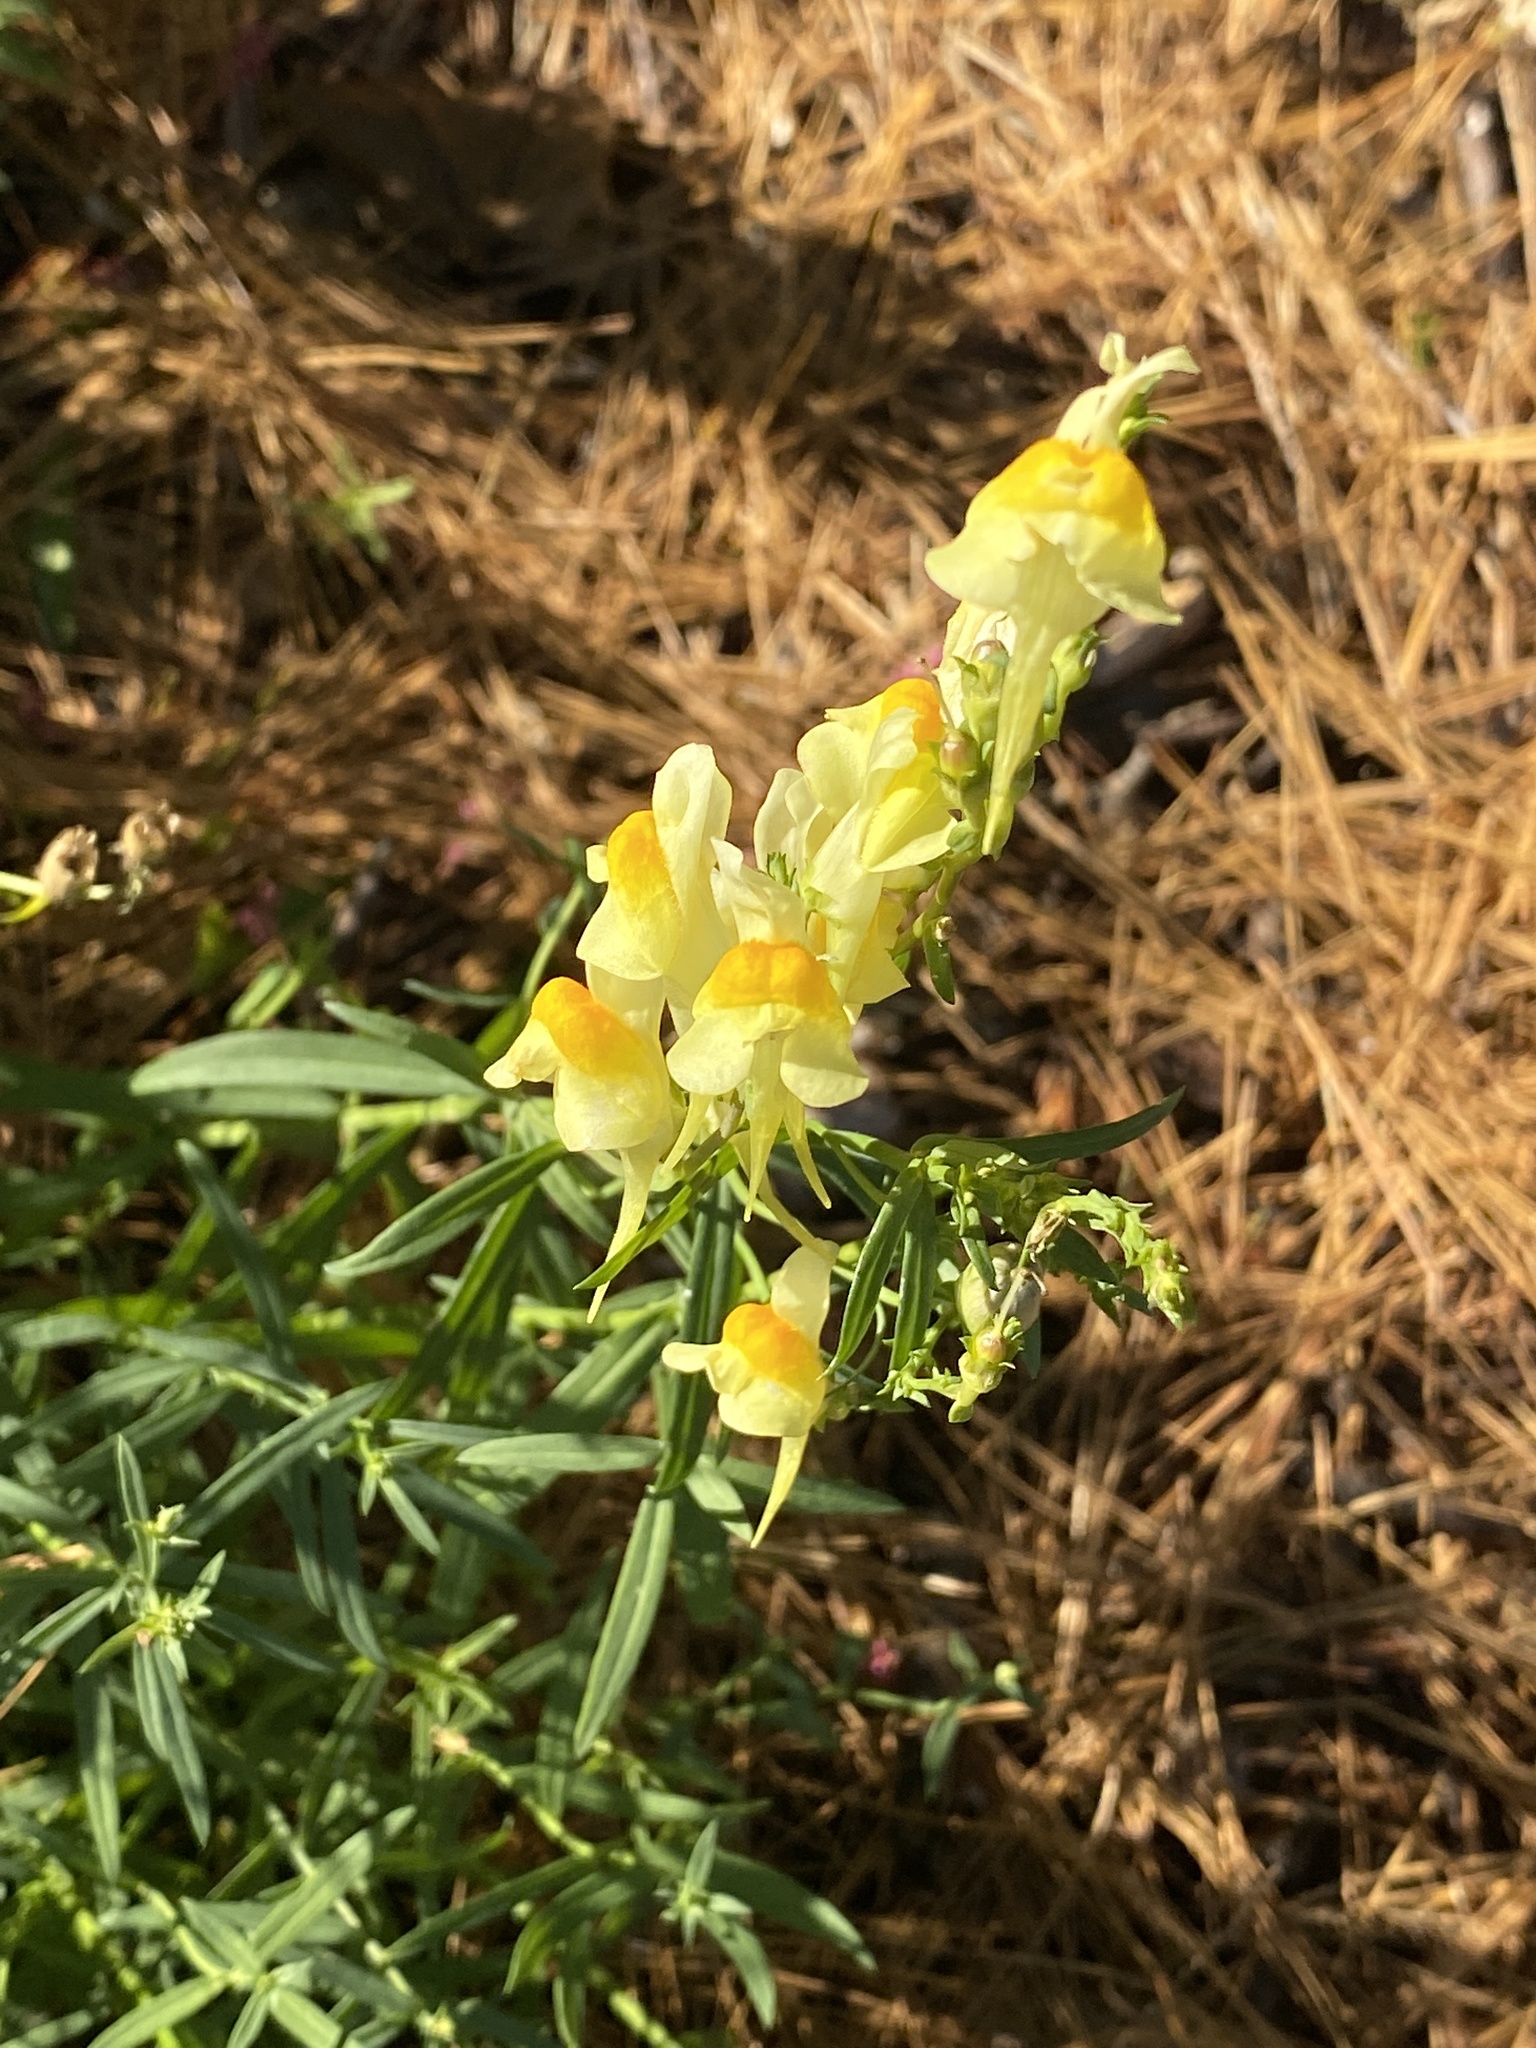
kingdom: Plantae
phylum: Tracheophyta
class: Magnoliopsida
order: Lamiales
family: Plantaginaceae
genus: Linaria
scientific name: Linaria vulgaris
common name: Butter and eggs
